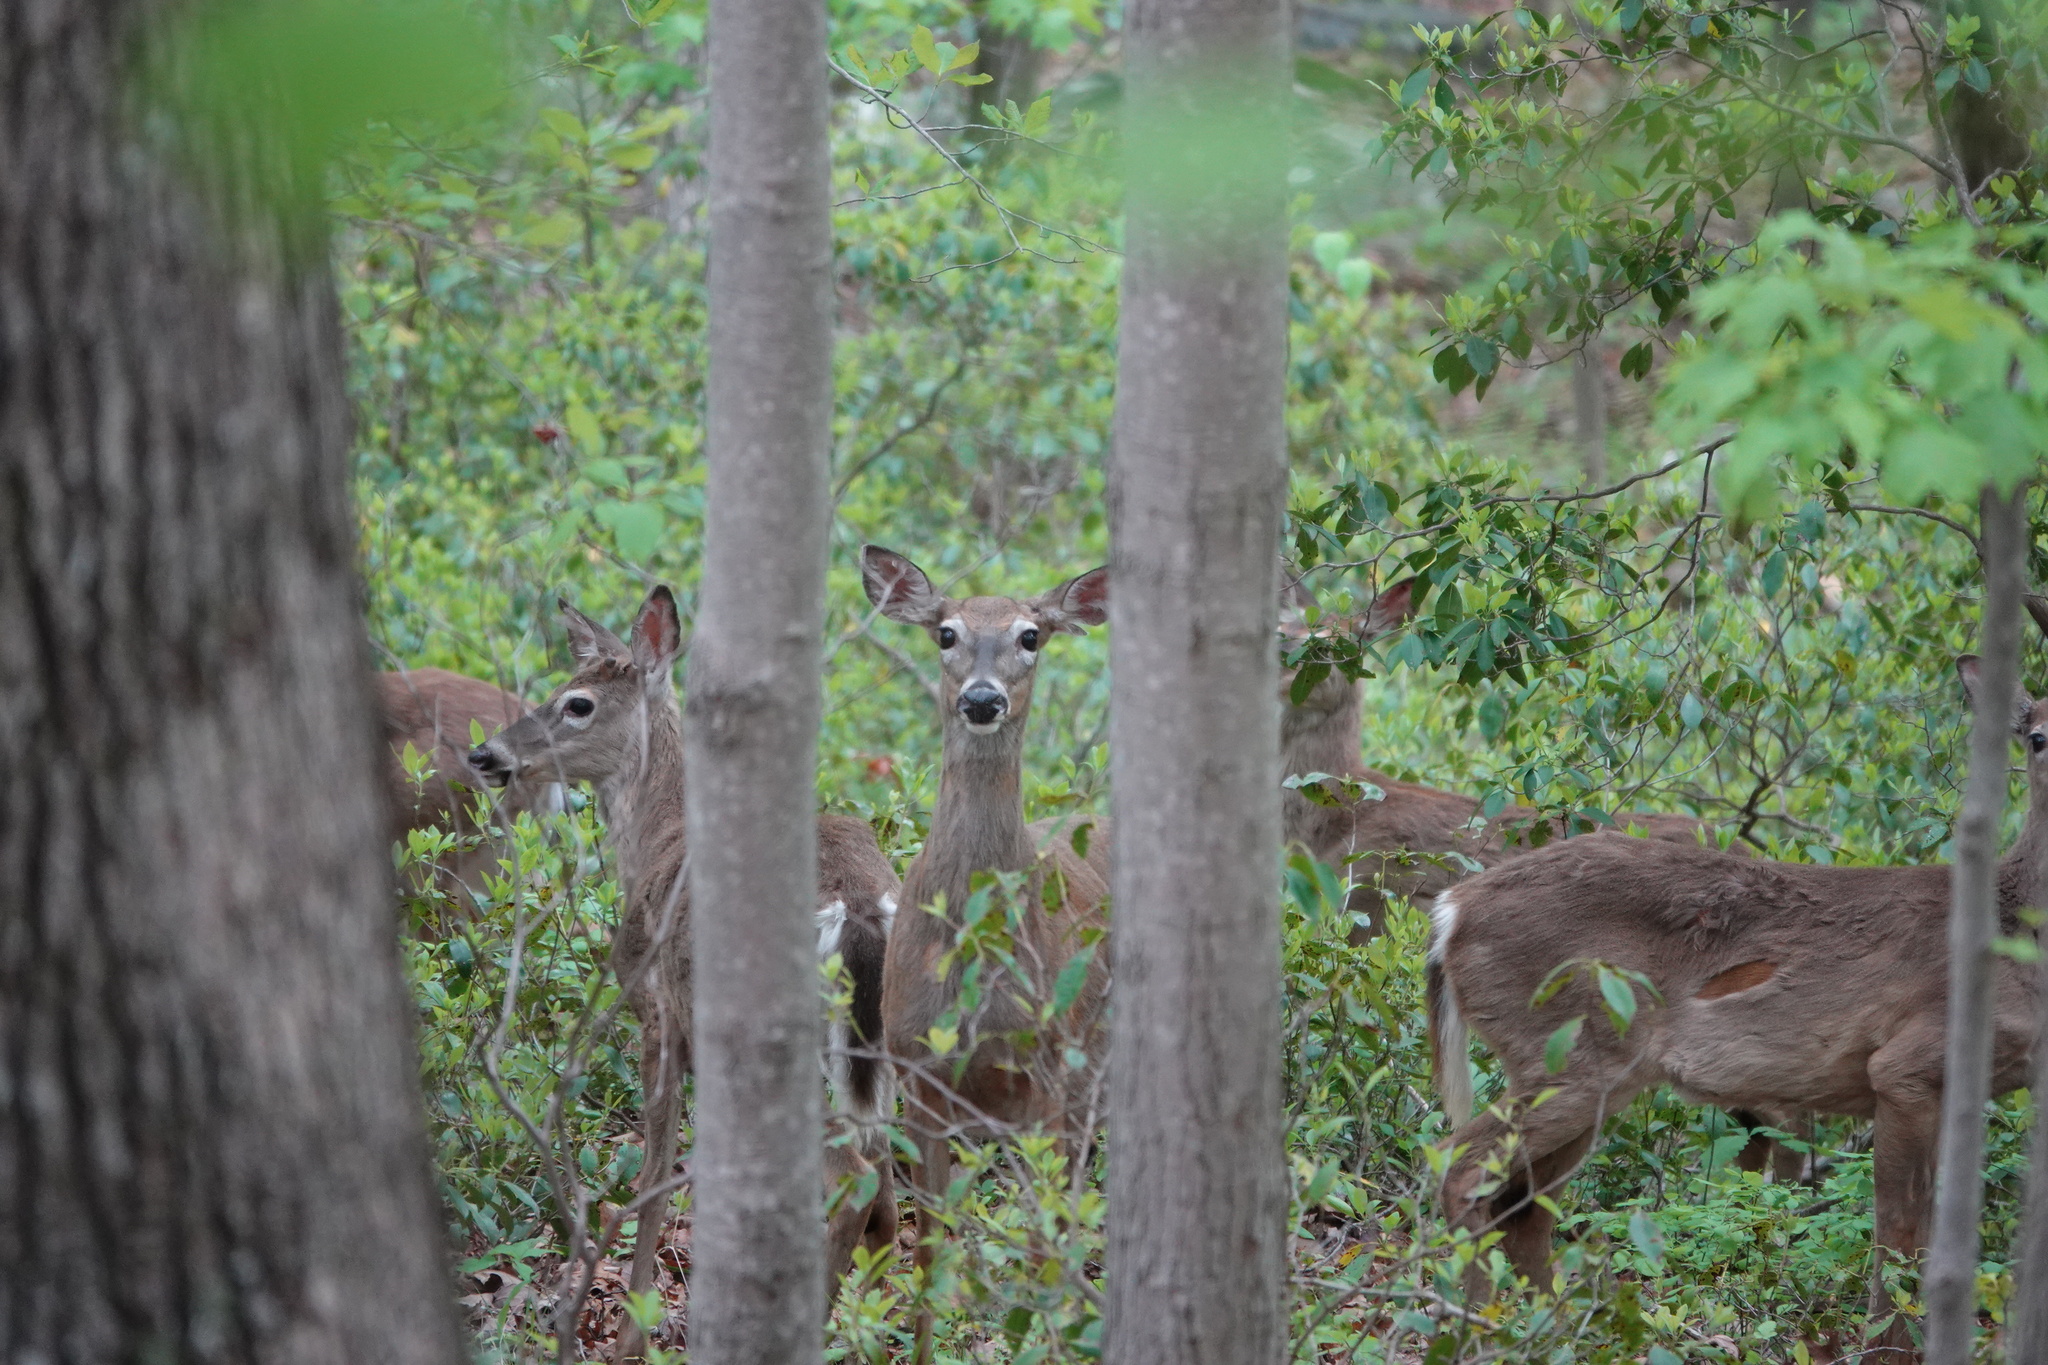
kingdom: Animalia
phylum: Chordata
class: Mammalia
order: Artiodactyla
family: Cervidae
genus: Odocoileus
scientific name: Odocoileus virginianus
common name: White-tailed deer
